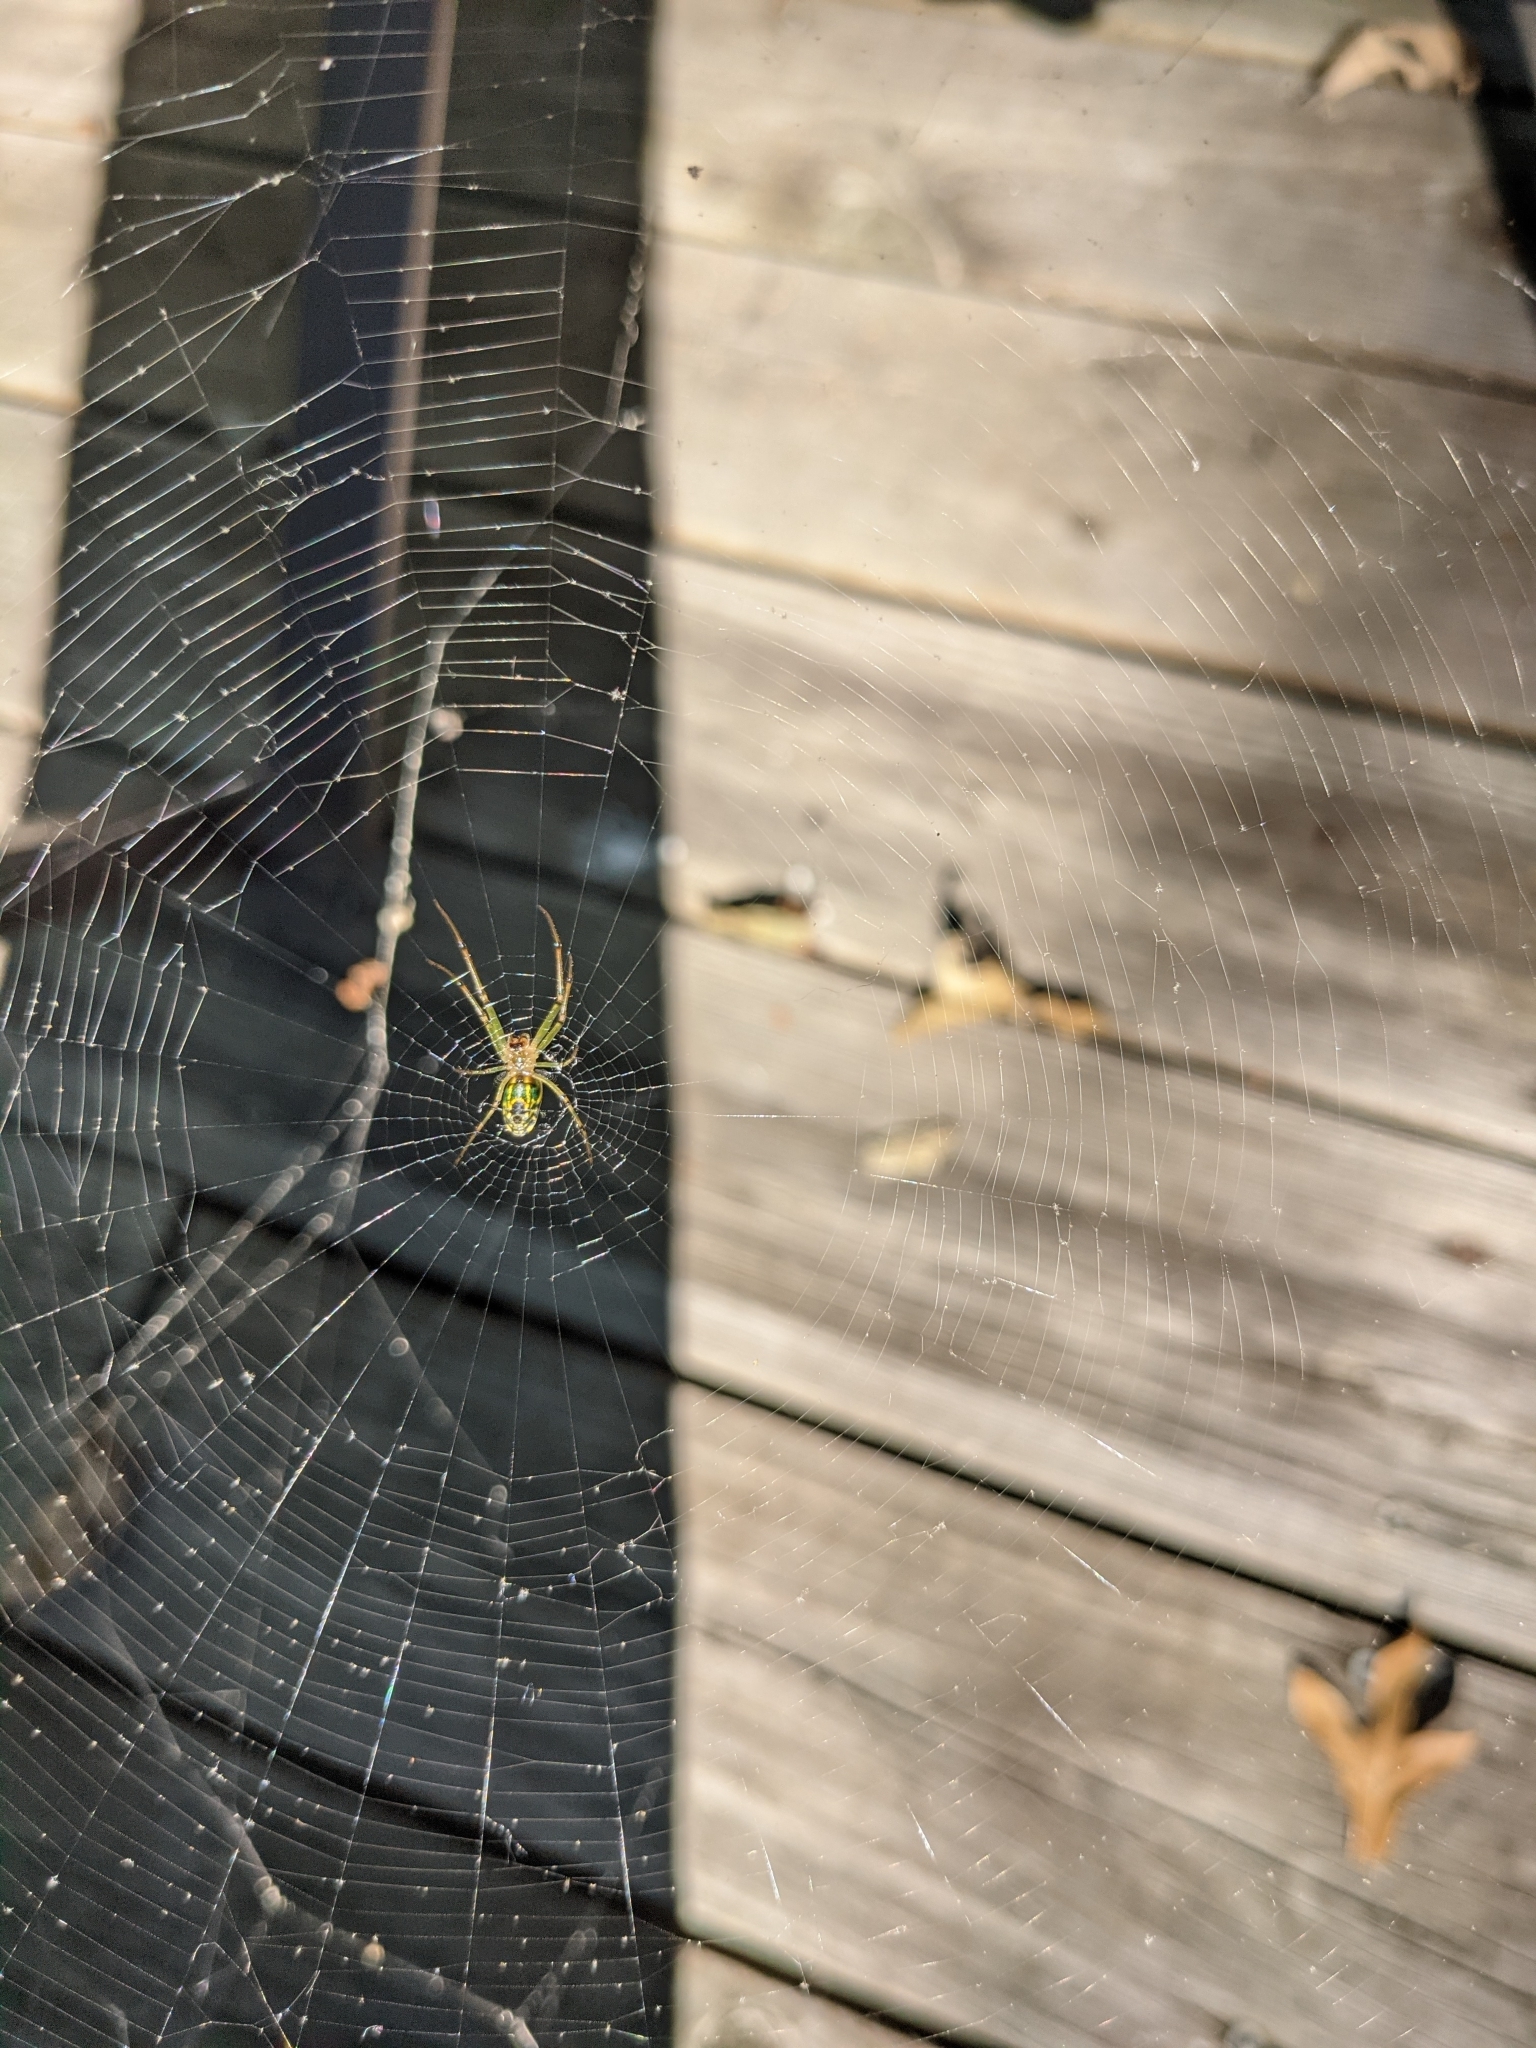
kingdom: Animalia
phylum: Arthropoda
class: Arachnida
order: Araneae
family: Tetragnathidae
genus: Leucauge
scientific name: Leucauge venusta
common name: Longjawed orb weavers
